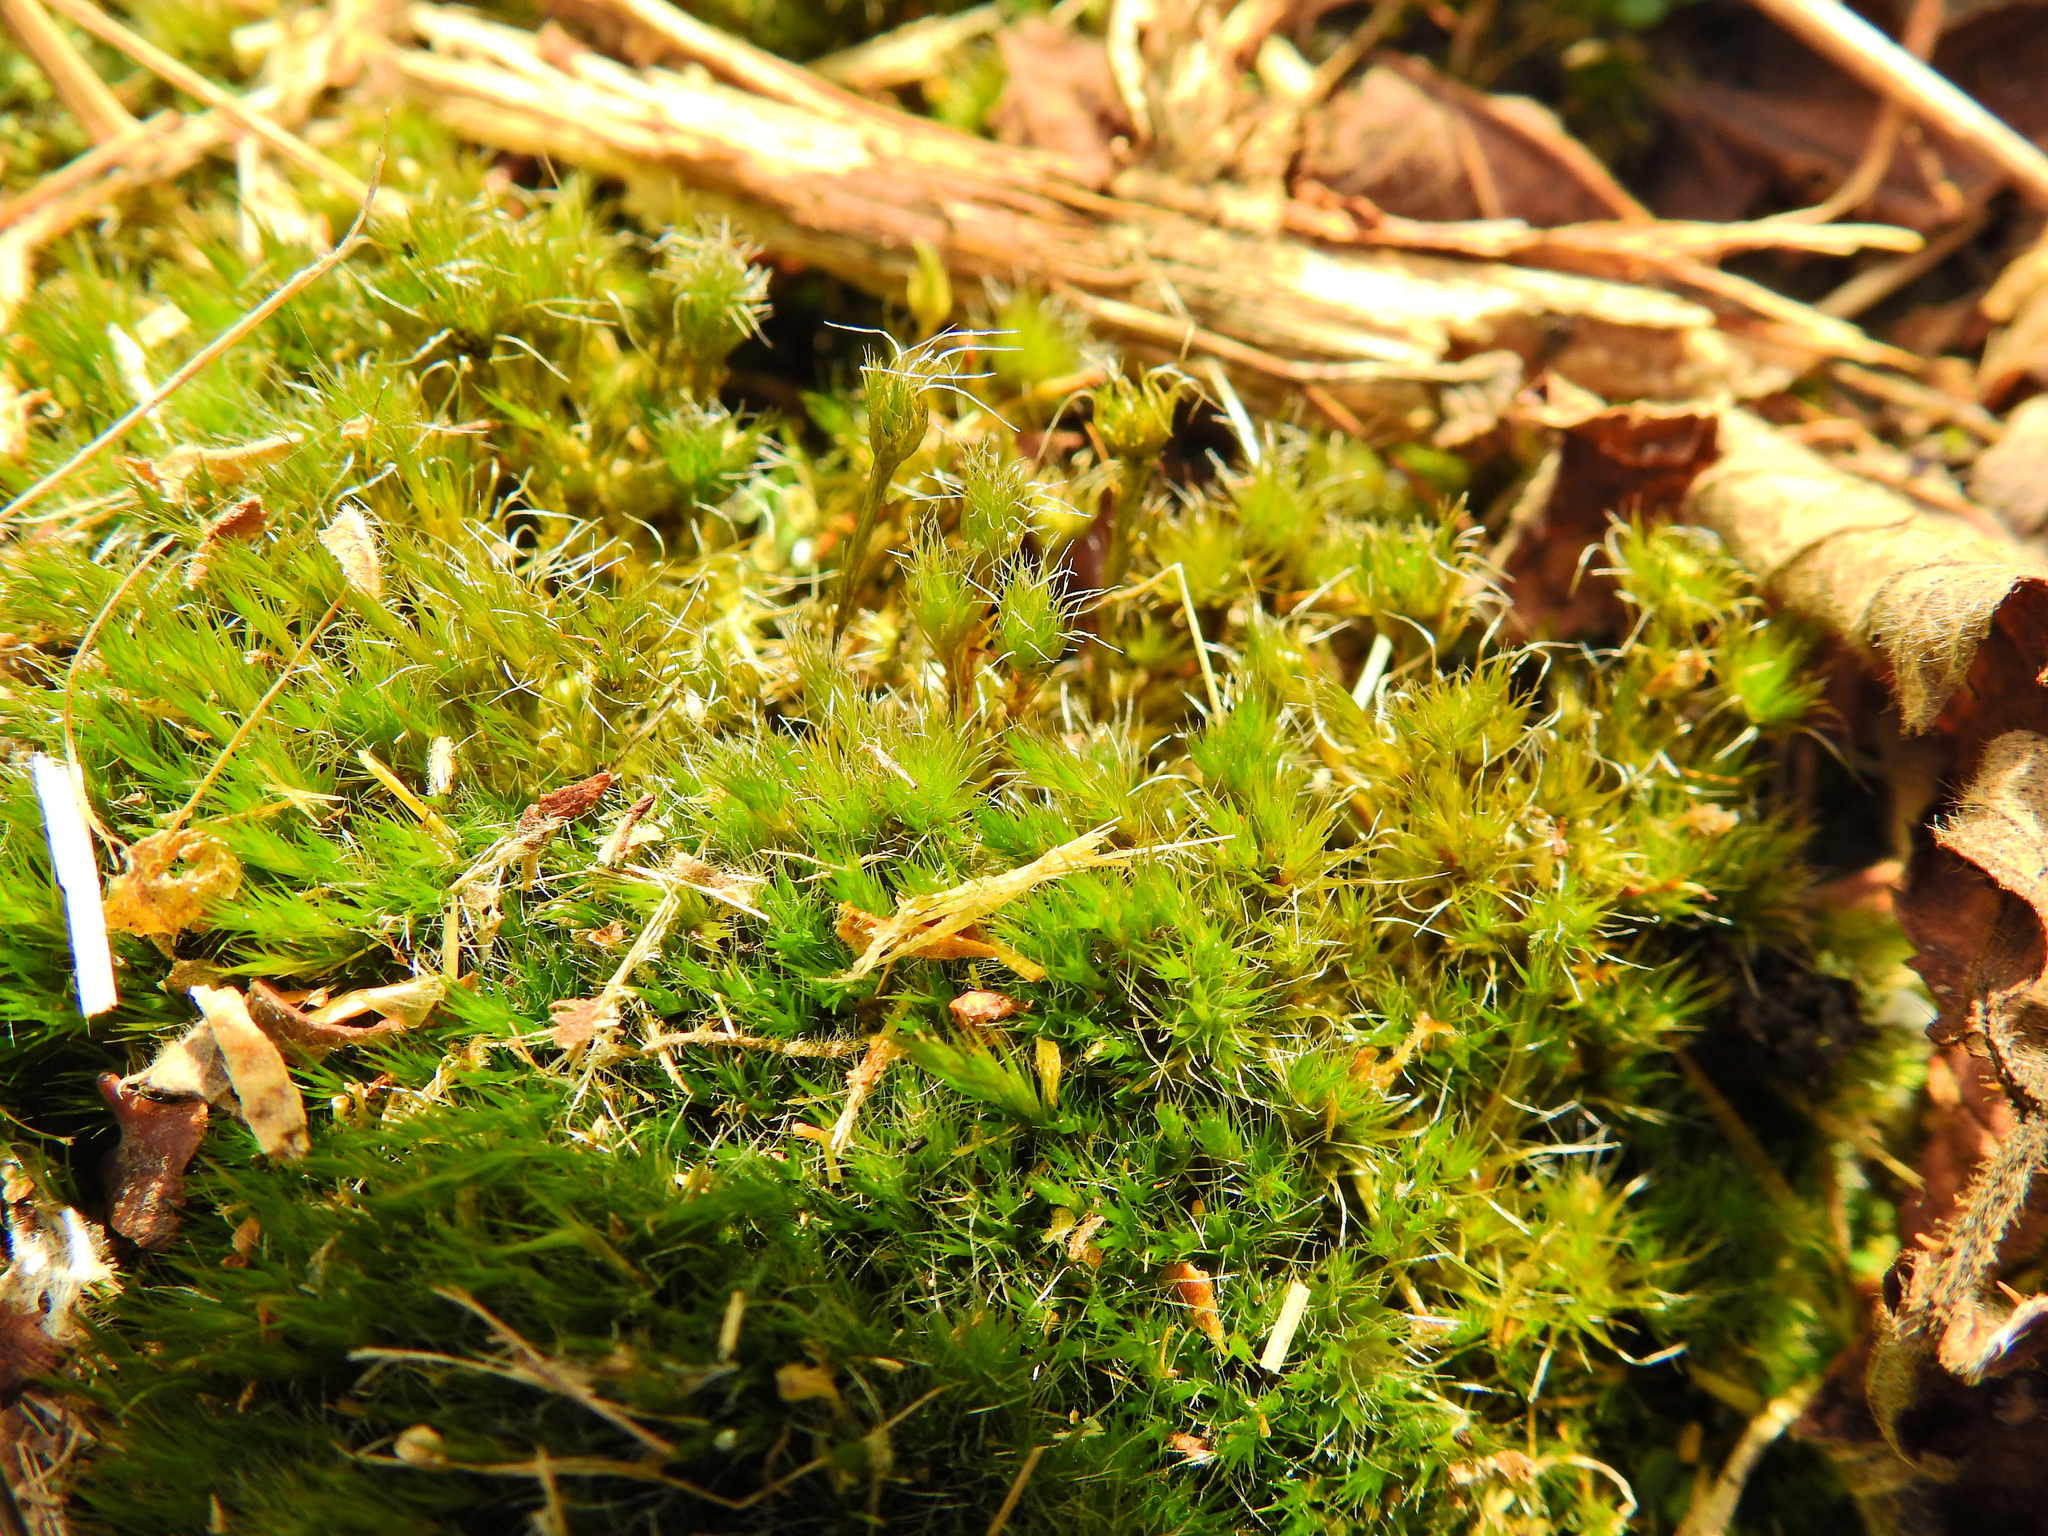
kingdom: Plantae
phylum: Bryophyta
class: Bryopsida
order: Dicranales
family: Leucobryaceae
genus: Campylopus
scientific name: Campylopus introflexus
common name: Heath star moss
